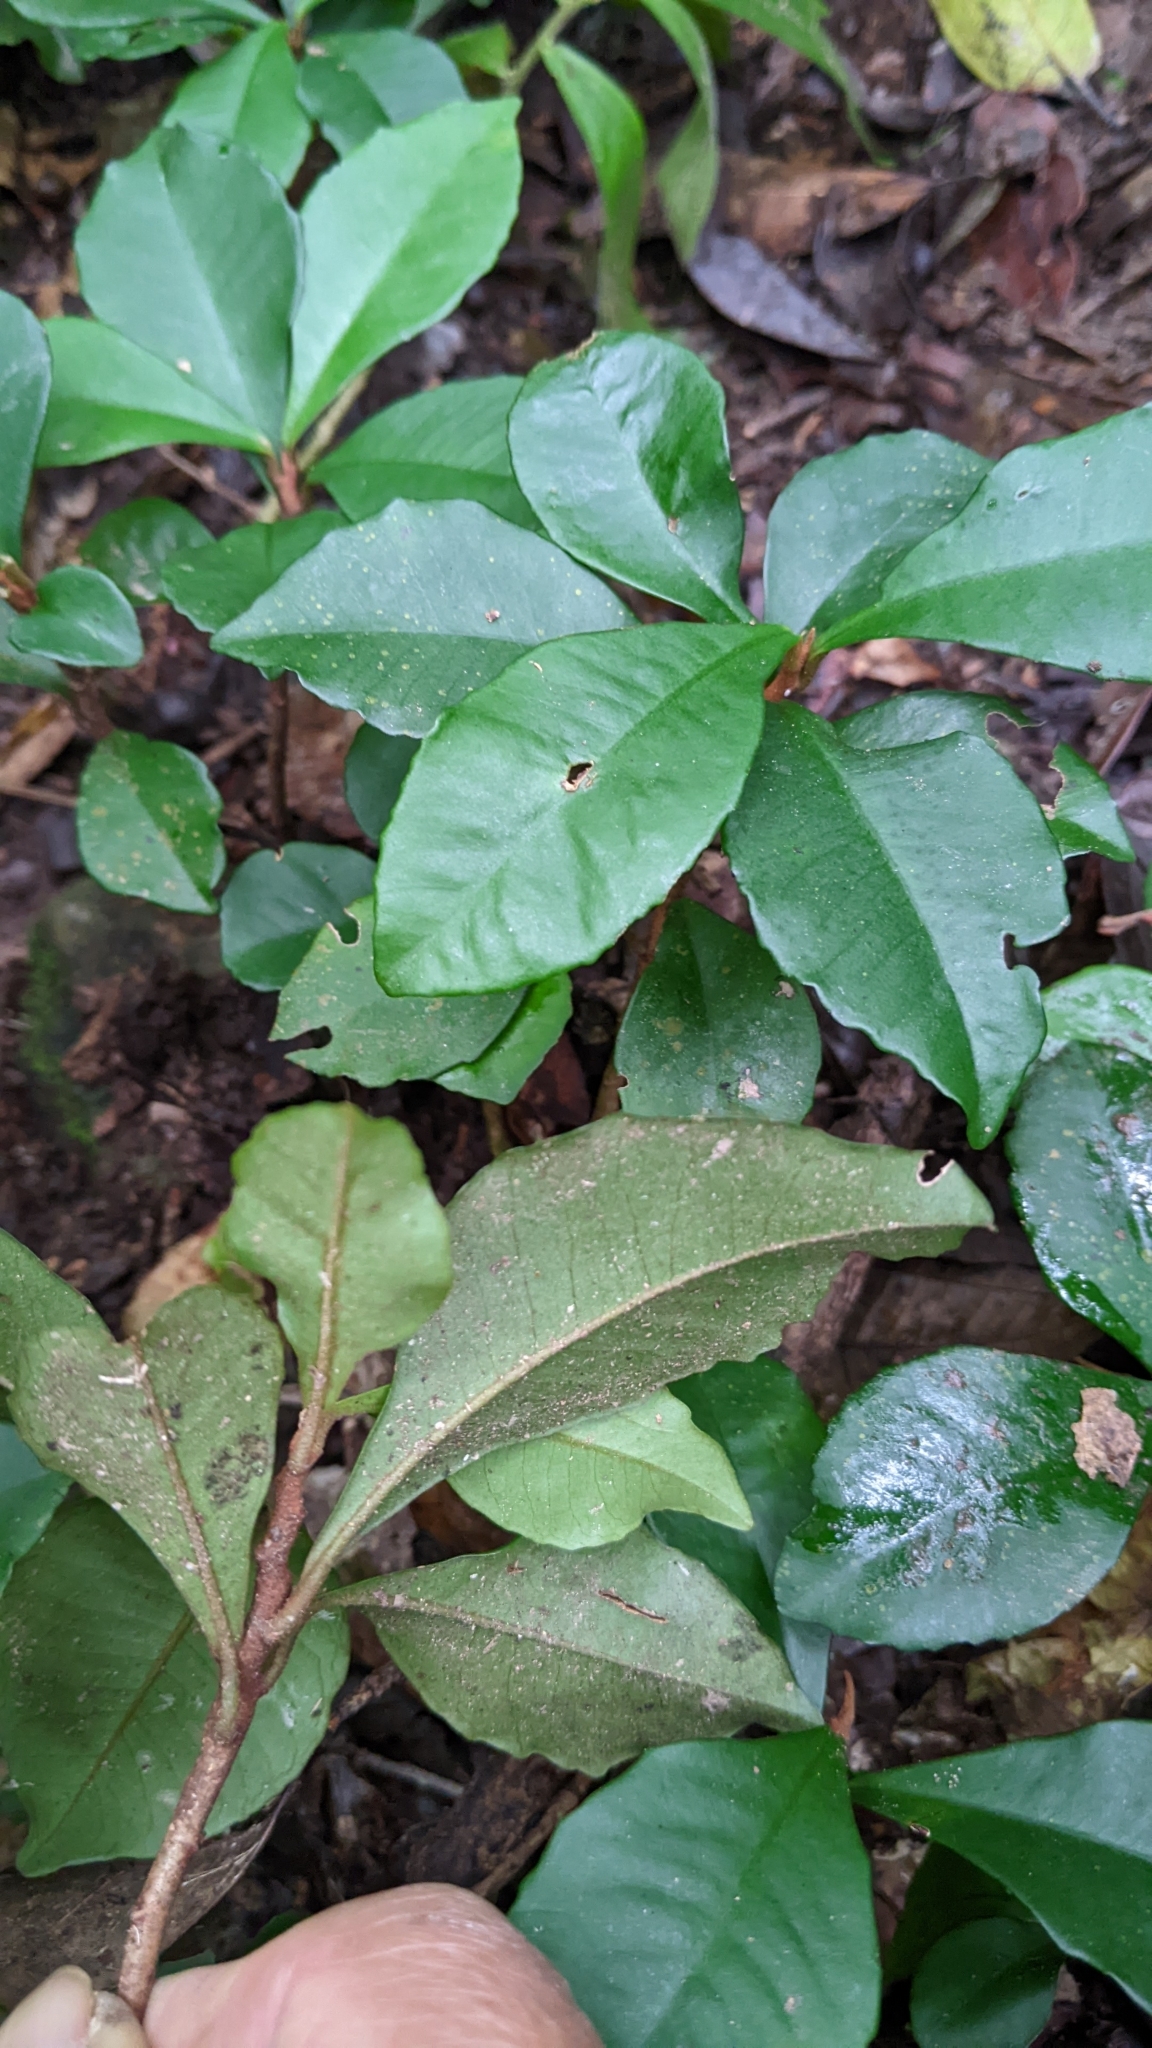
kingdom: Plantae
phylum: Tracheophyta
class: Magnoliopsida
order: Ericales
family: Primulaceae
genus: Ardisia
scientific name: Ardisia cymosa
